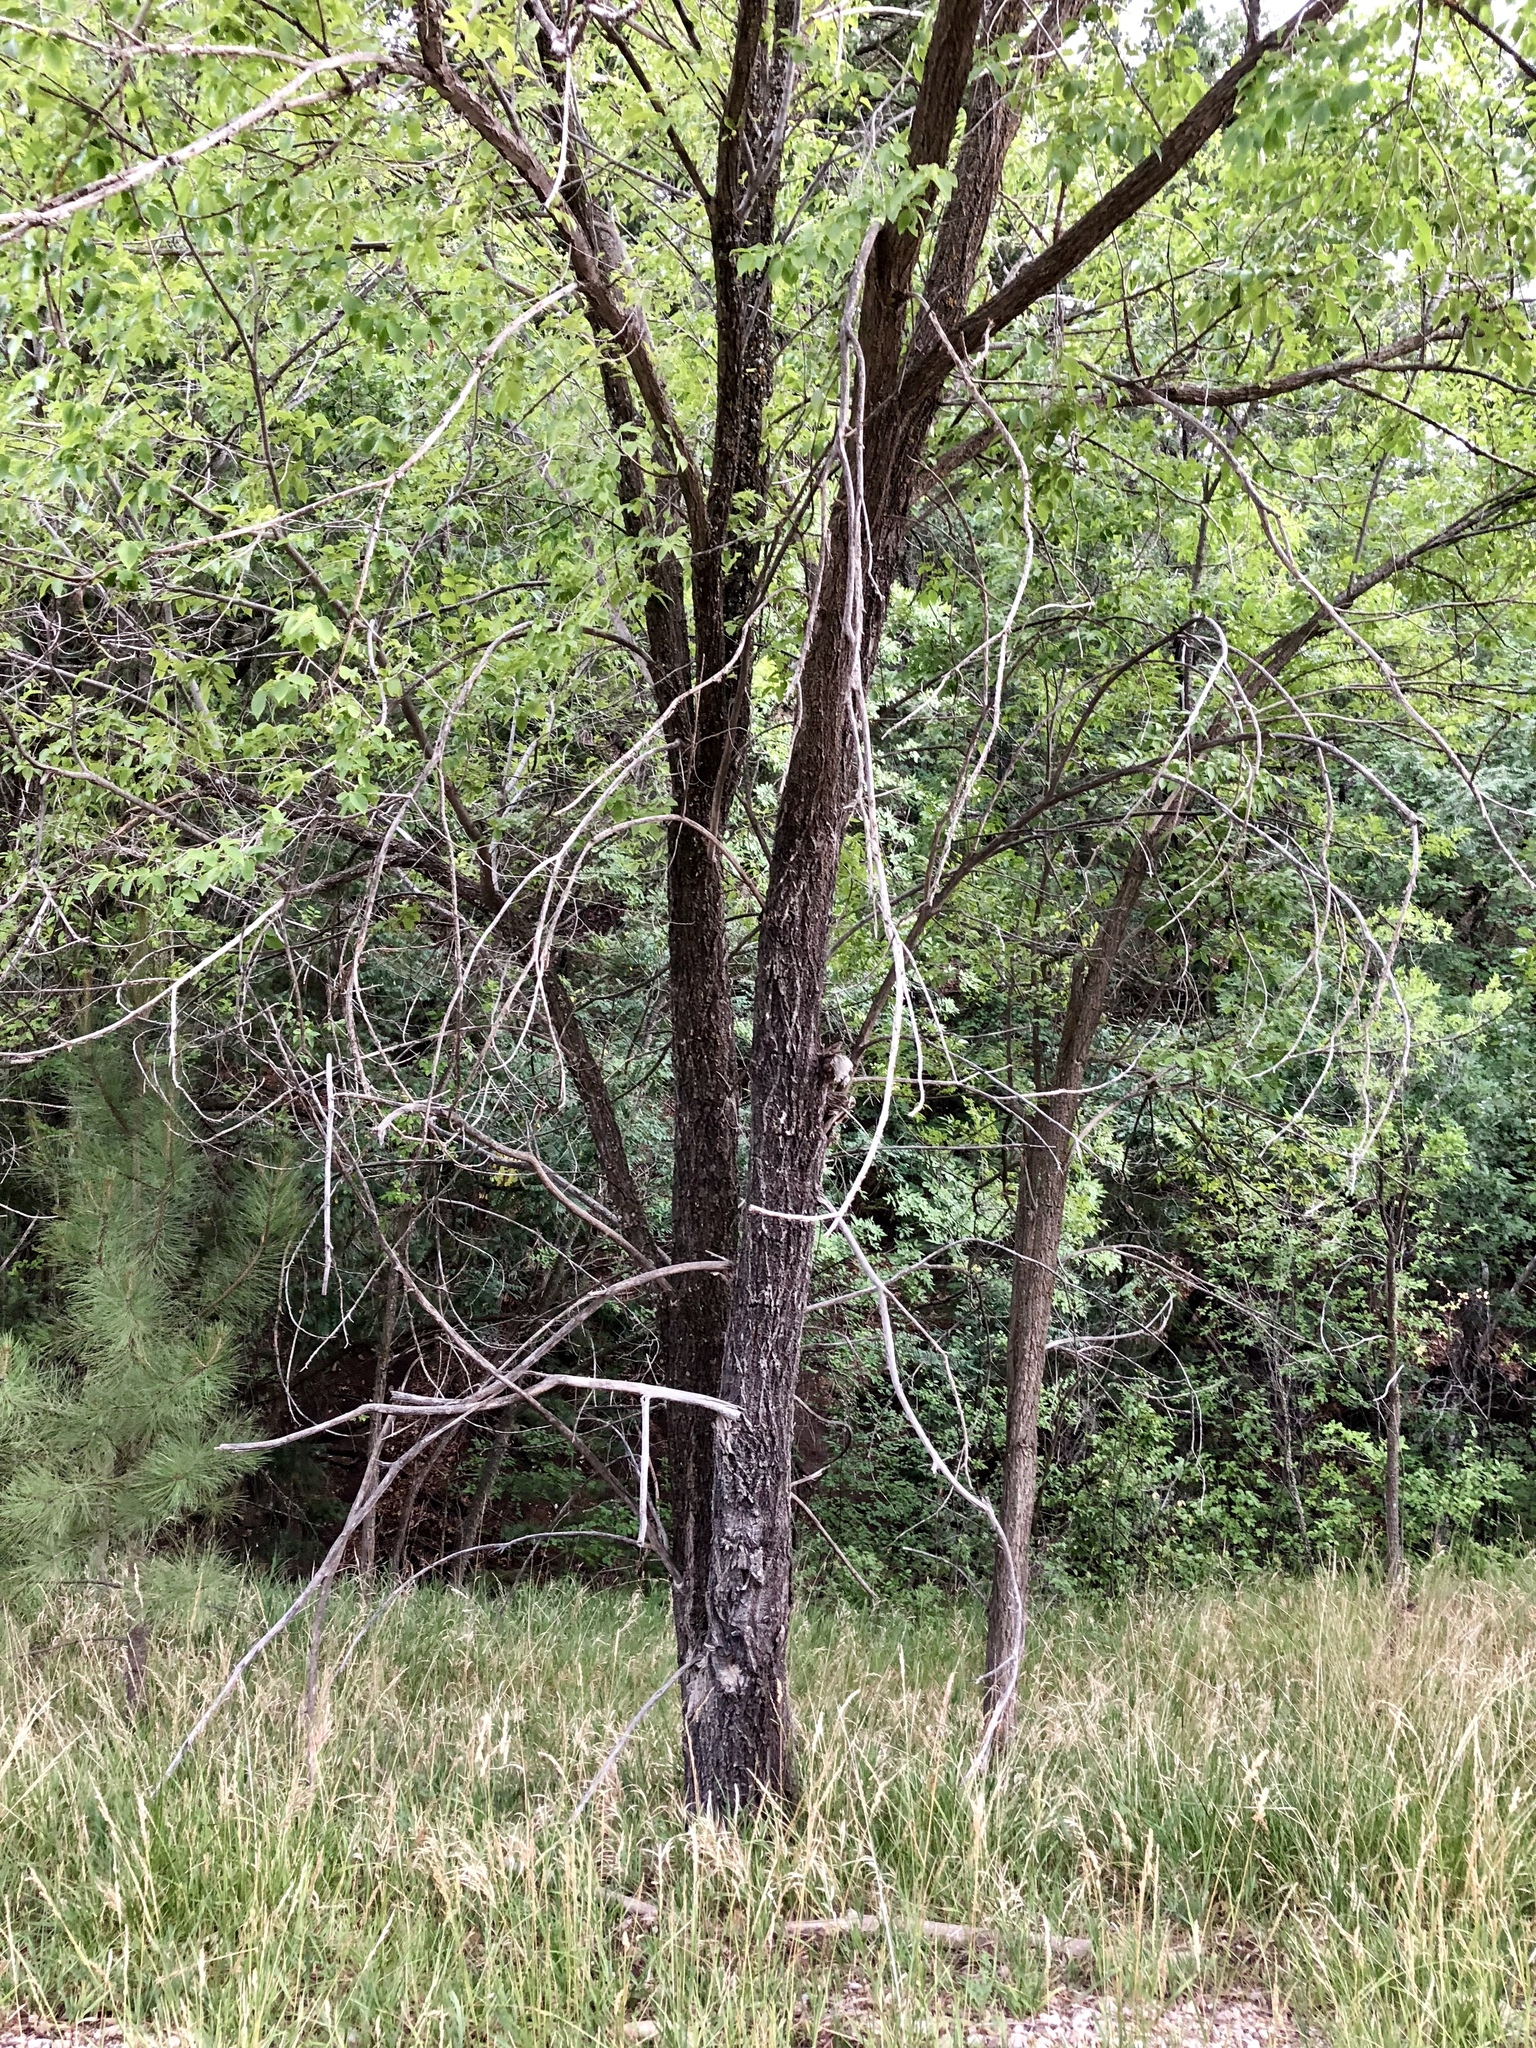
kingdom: Plantae
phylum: Tracheophyta
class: Magnoliopsida
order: Rosales
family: Ulmaceae
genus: Ulmus
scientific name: Ulmus pumila
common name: Siberian elm
